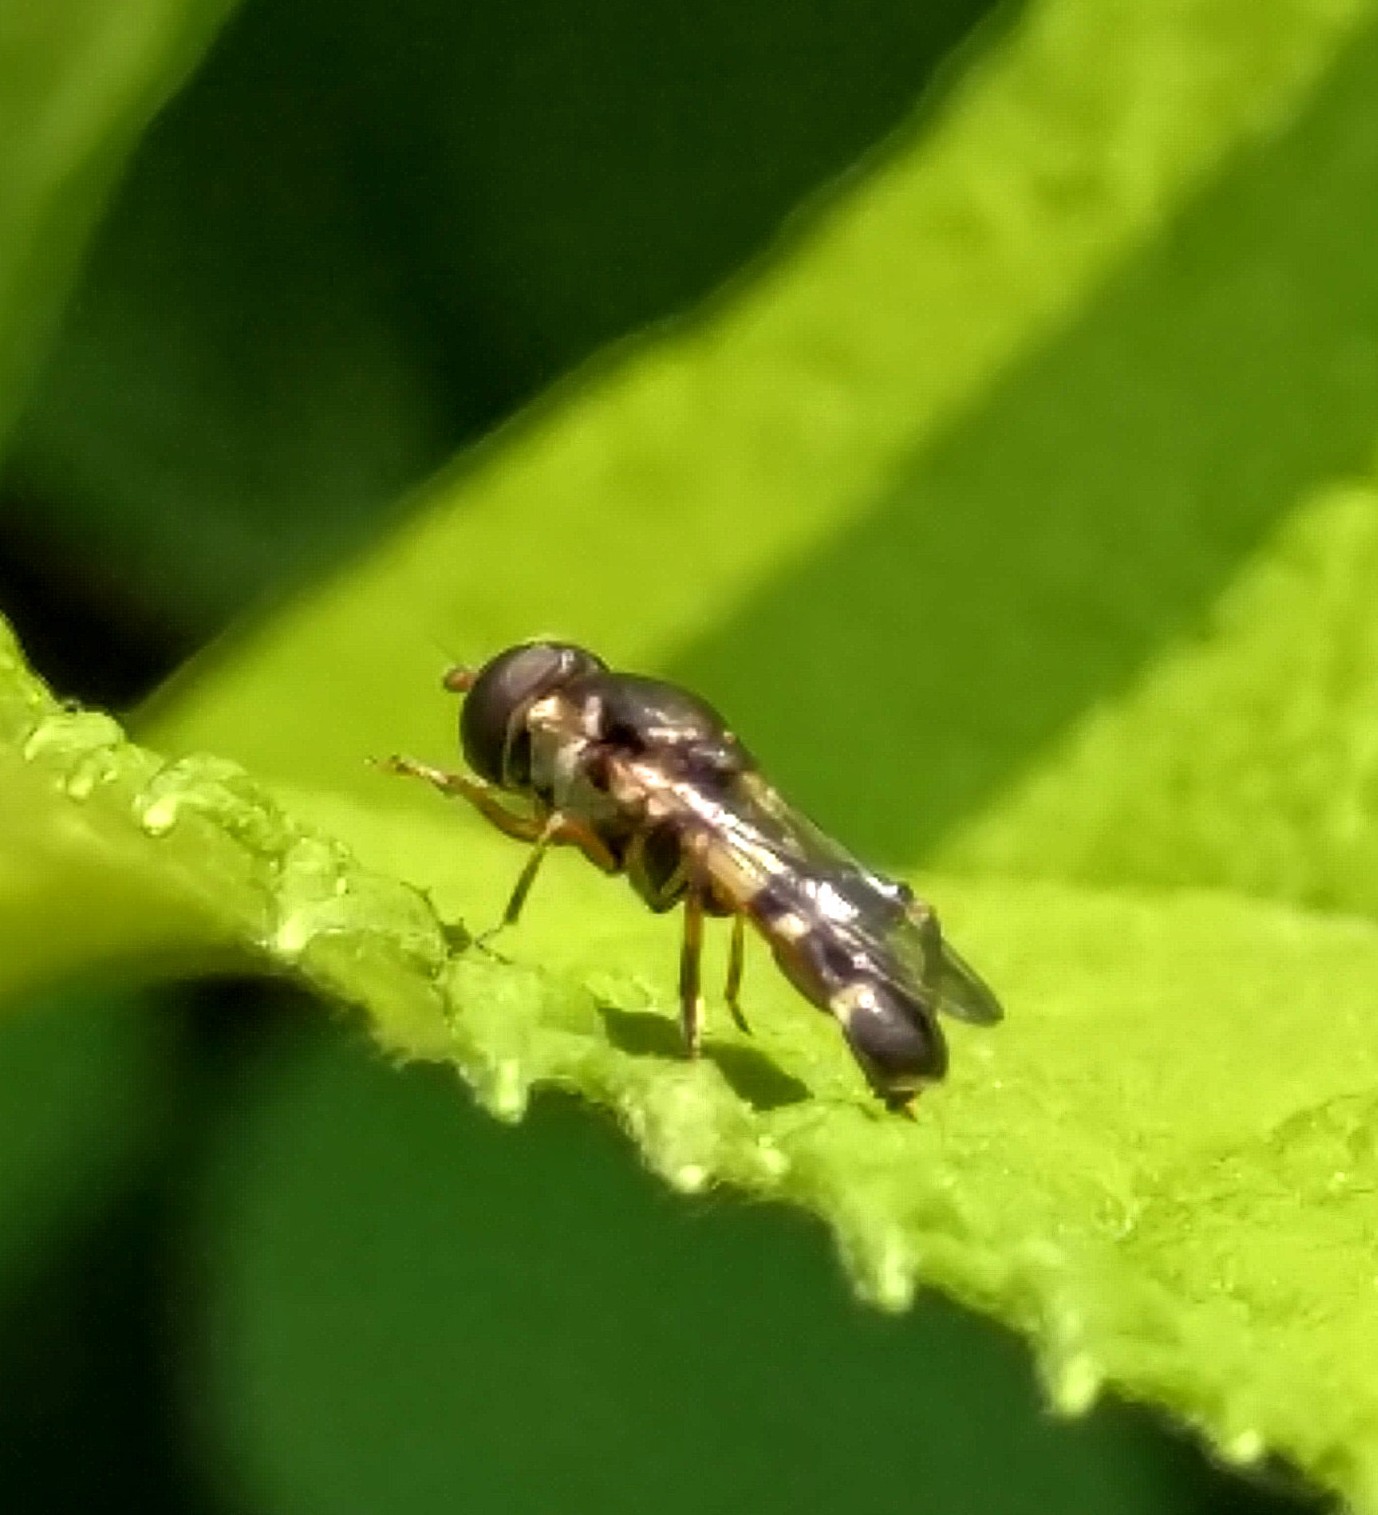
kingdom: Animalia
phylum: Arthropoda
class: Insecta
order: Diptera
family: Syrphidae
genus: Syritta
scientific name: Syritta pipiens
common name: Hover fly
